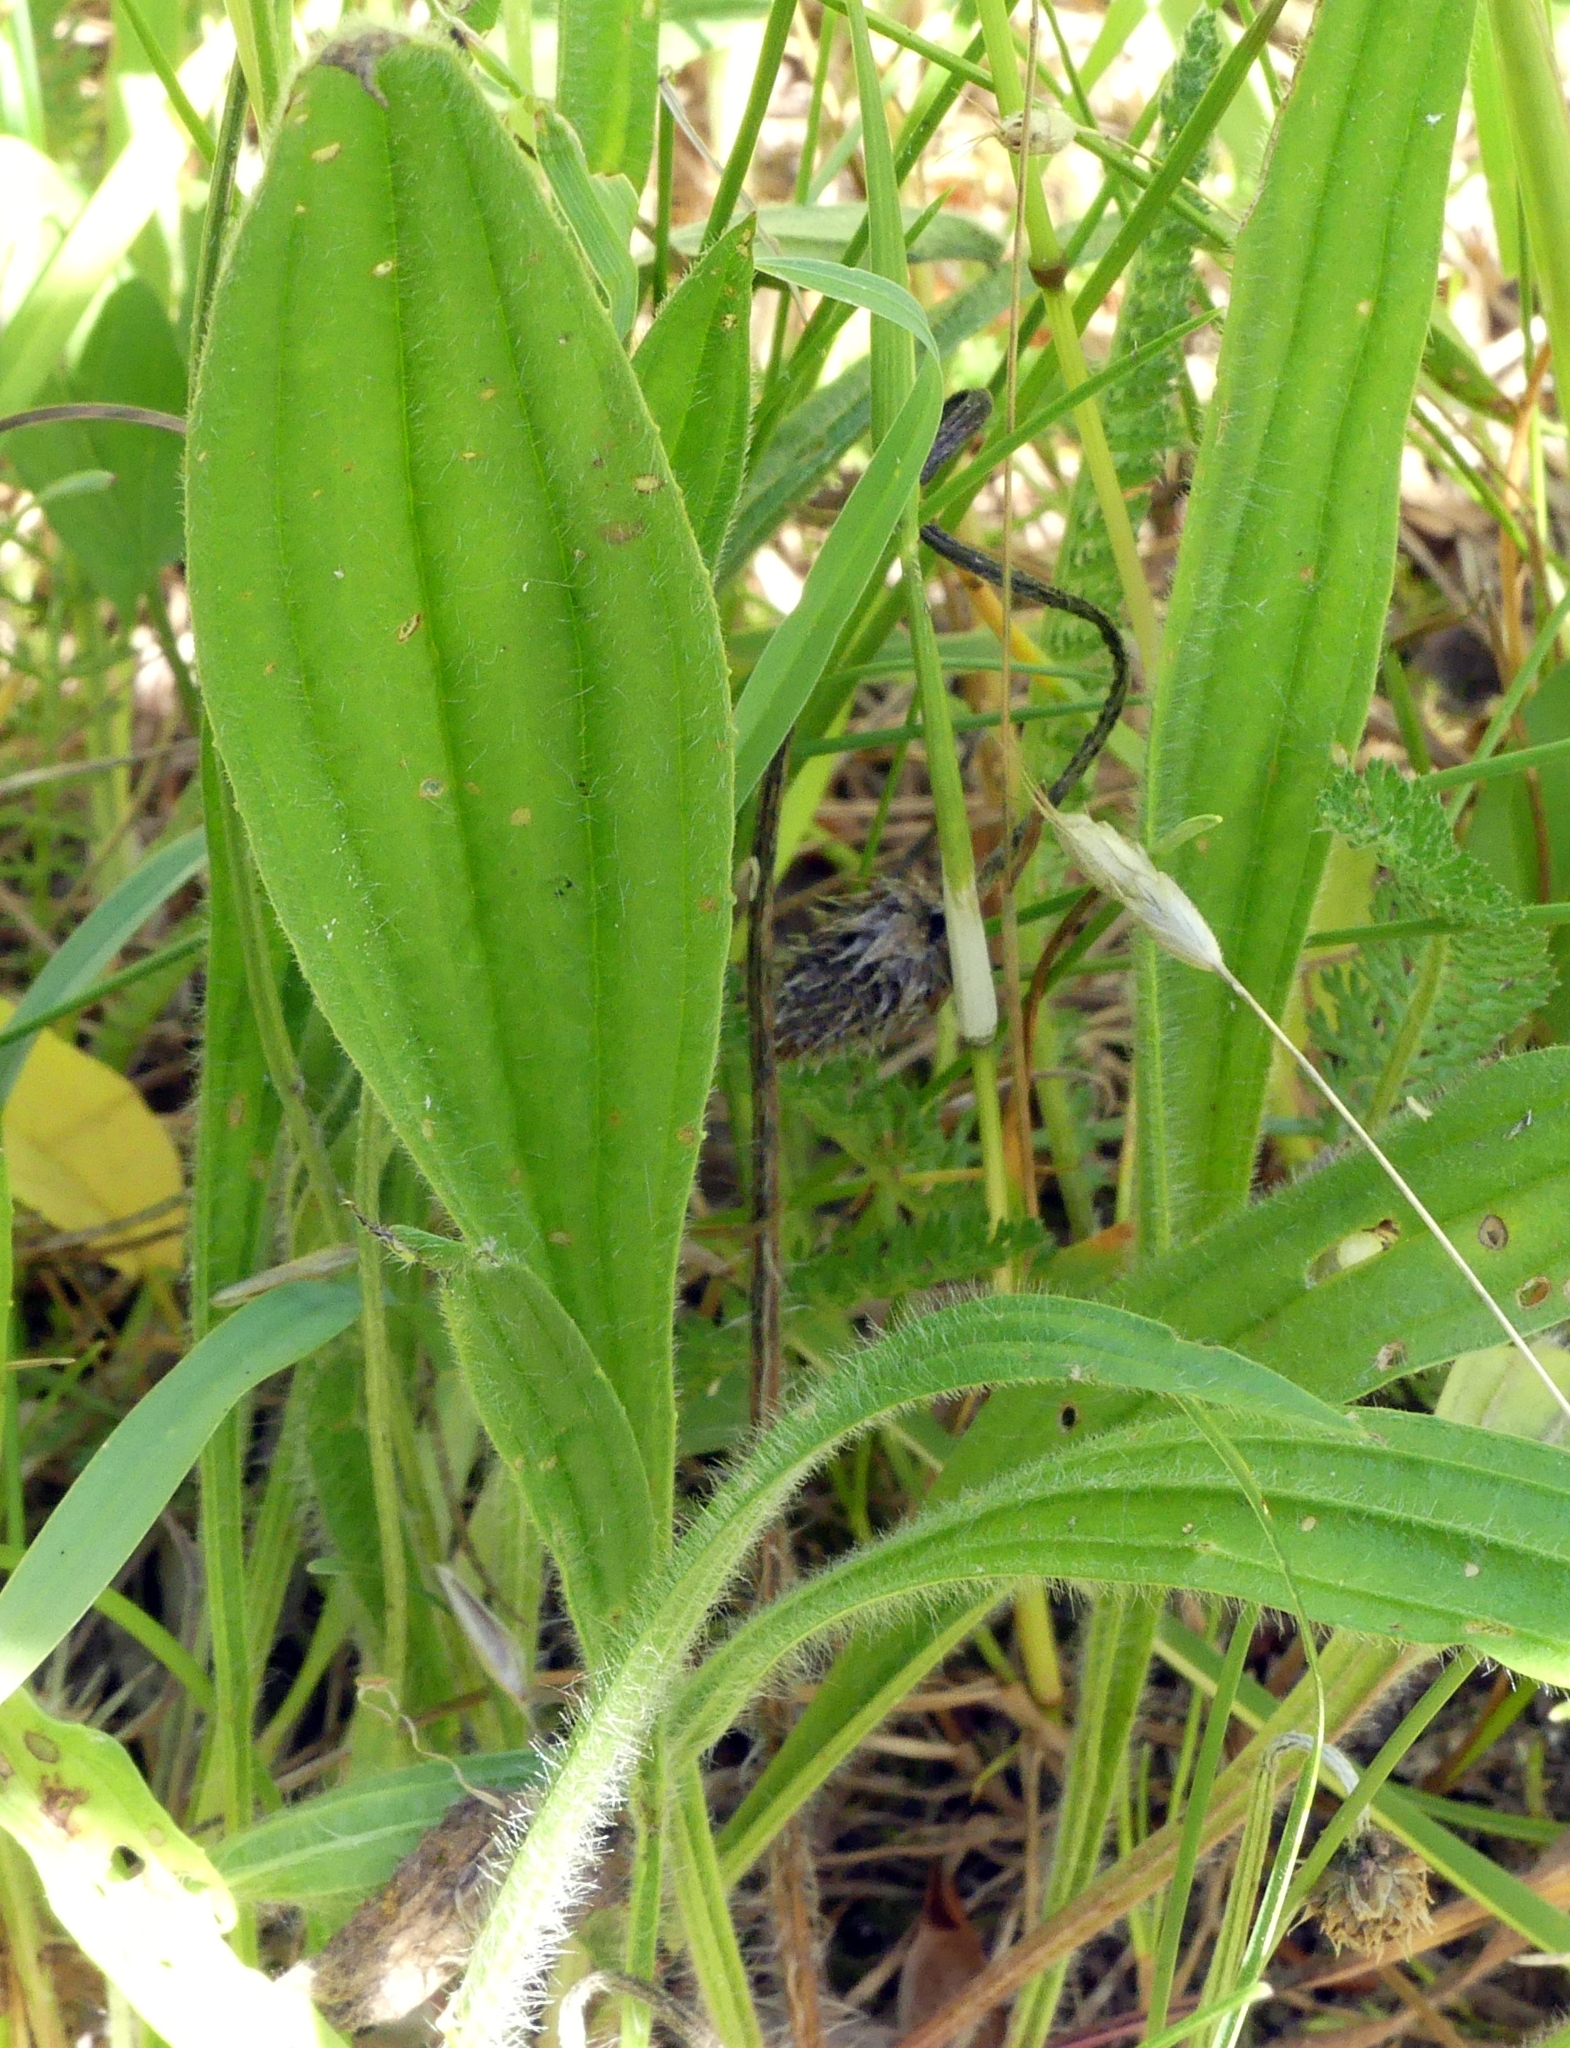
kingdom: Plantae
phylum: Tracheophyta
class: Magnoliopsida
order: Lamiales
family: Plantaginaceae
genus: Plantago
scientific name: Plantago lanceolata
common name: Ribwort plantain
